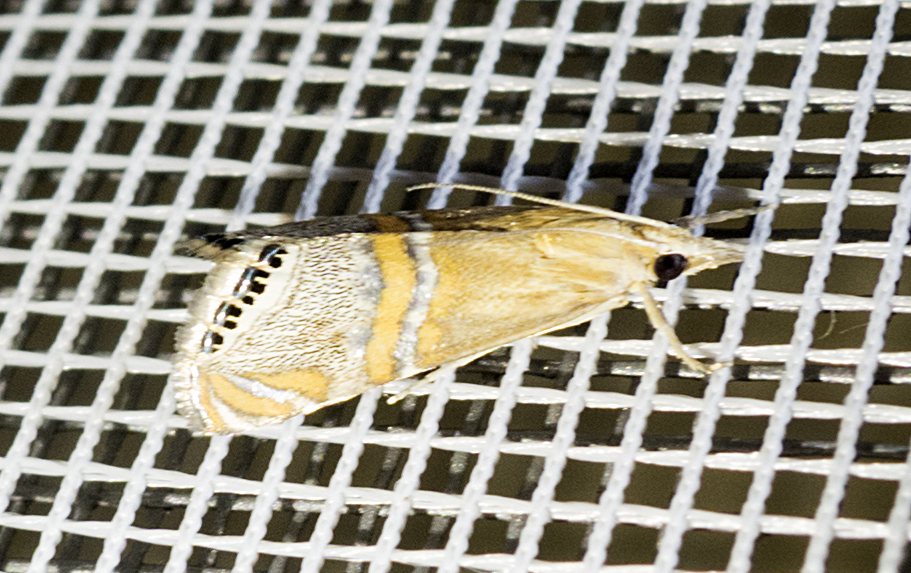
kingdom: Animalia
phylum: Arthropoda
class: Insecta
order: Lepidoptera
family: Crambidae
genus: Euchromius
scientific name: Euchromius bella
